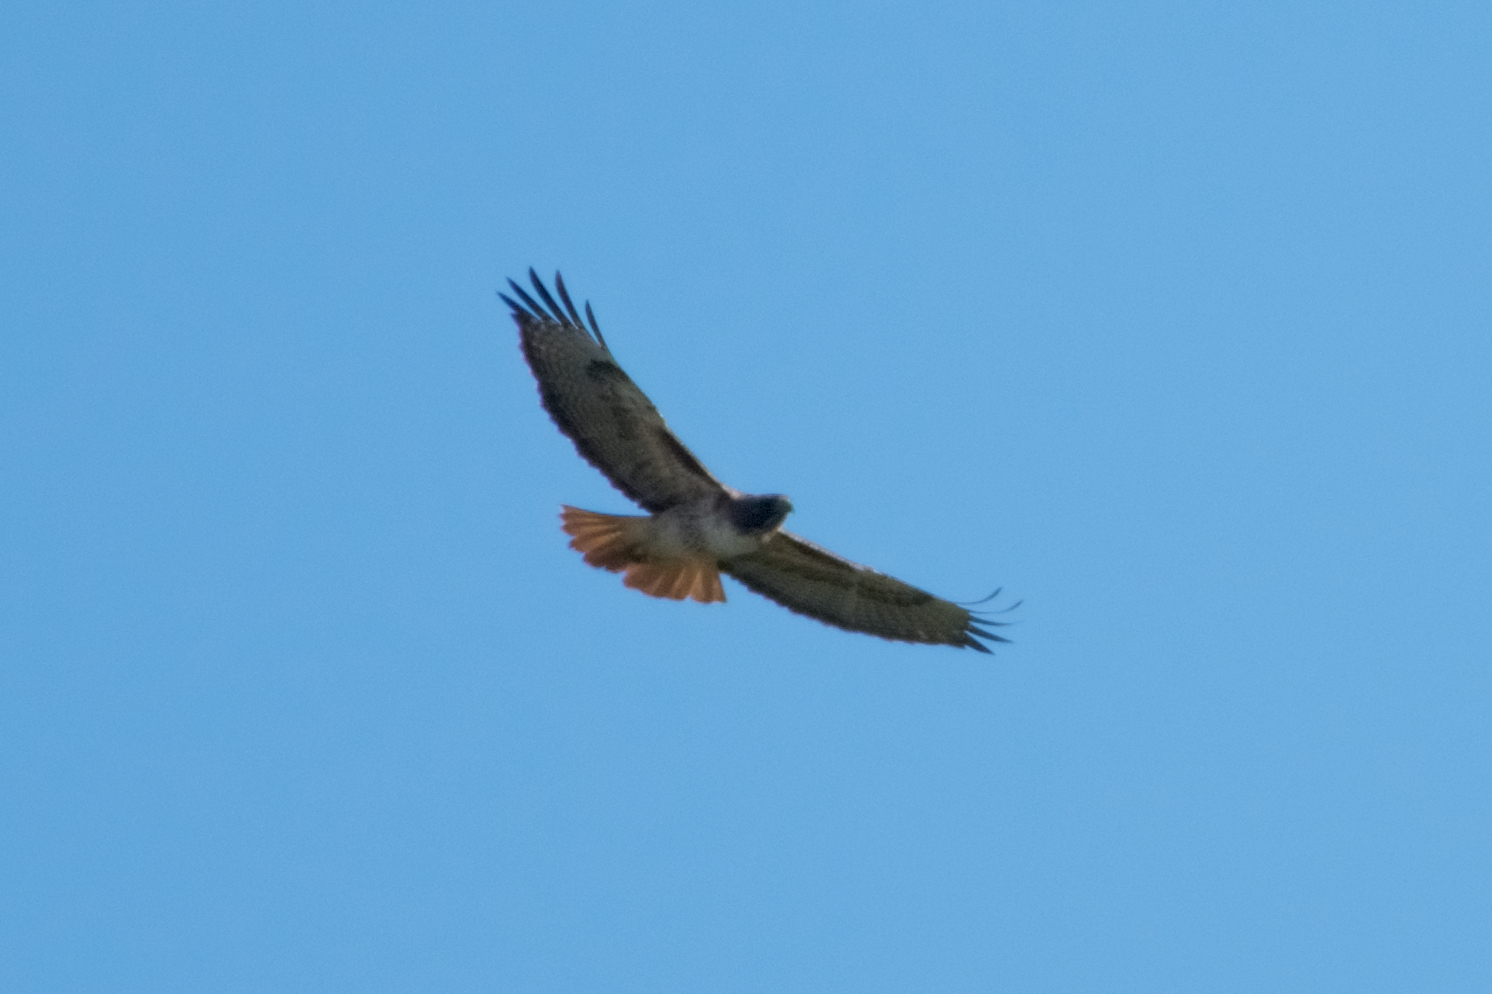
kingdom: Animalia
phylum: Chordata
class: Aves
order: Accipitriformes
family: Accipitridae
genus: Buteo
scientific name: Buteo jamaicensis
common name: Red-tailed hawk
